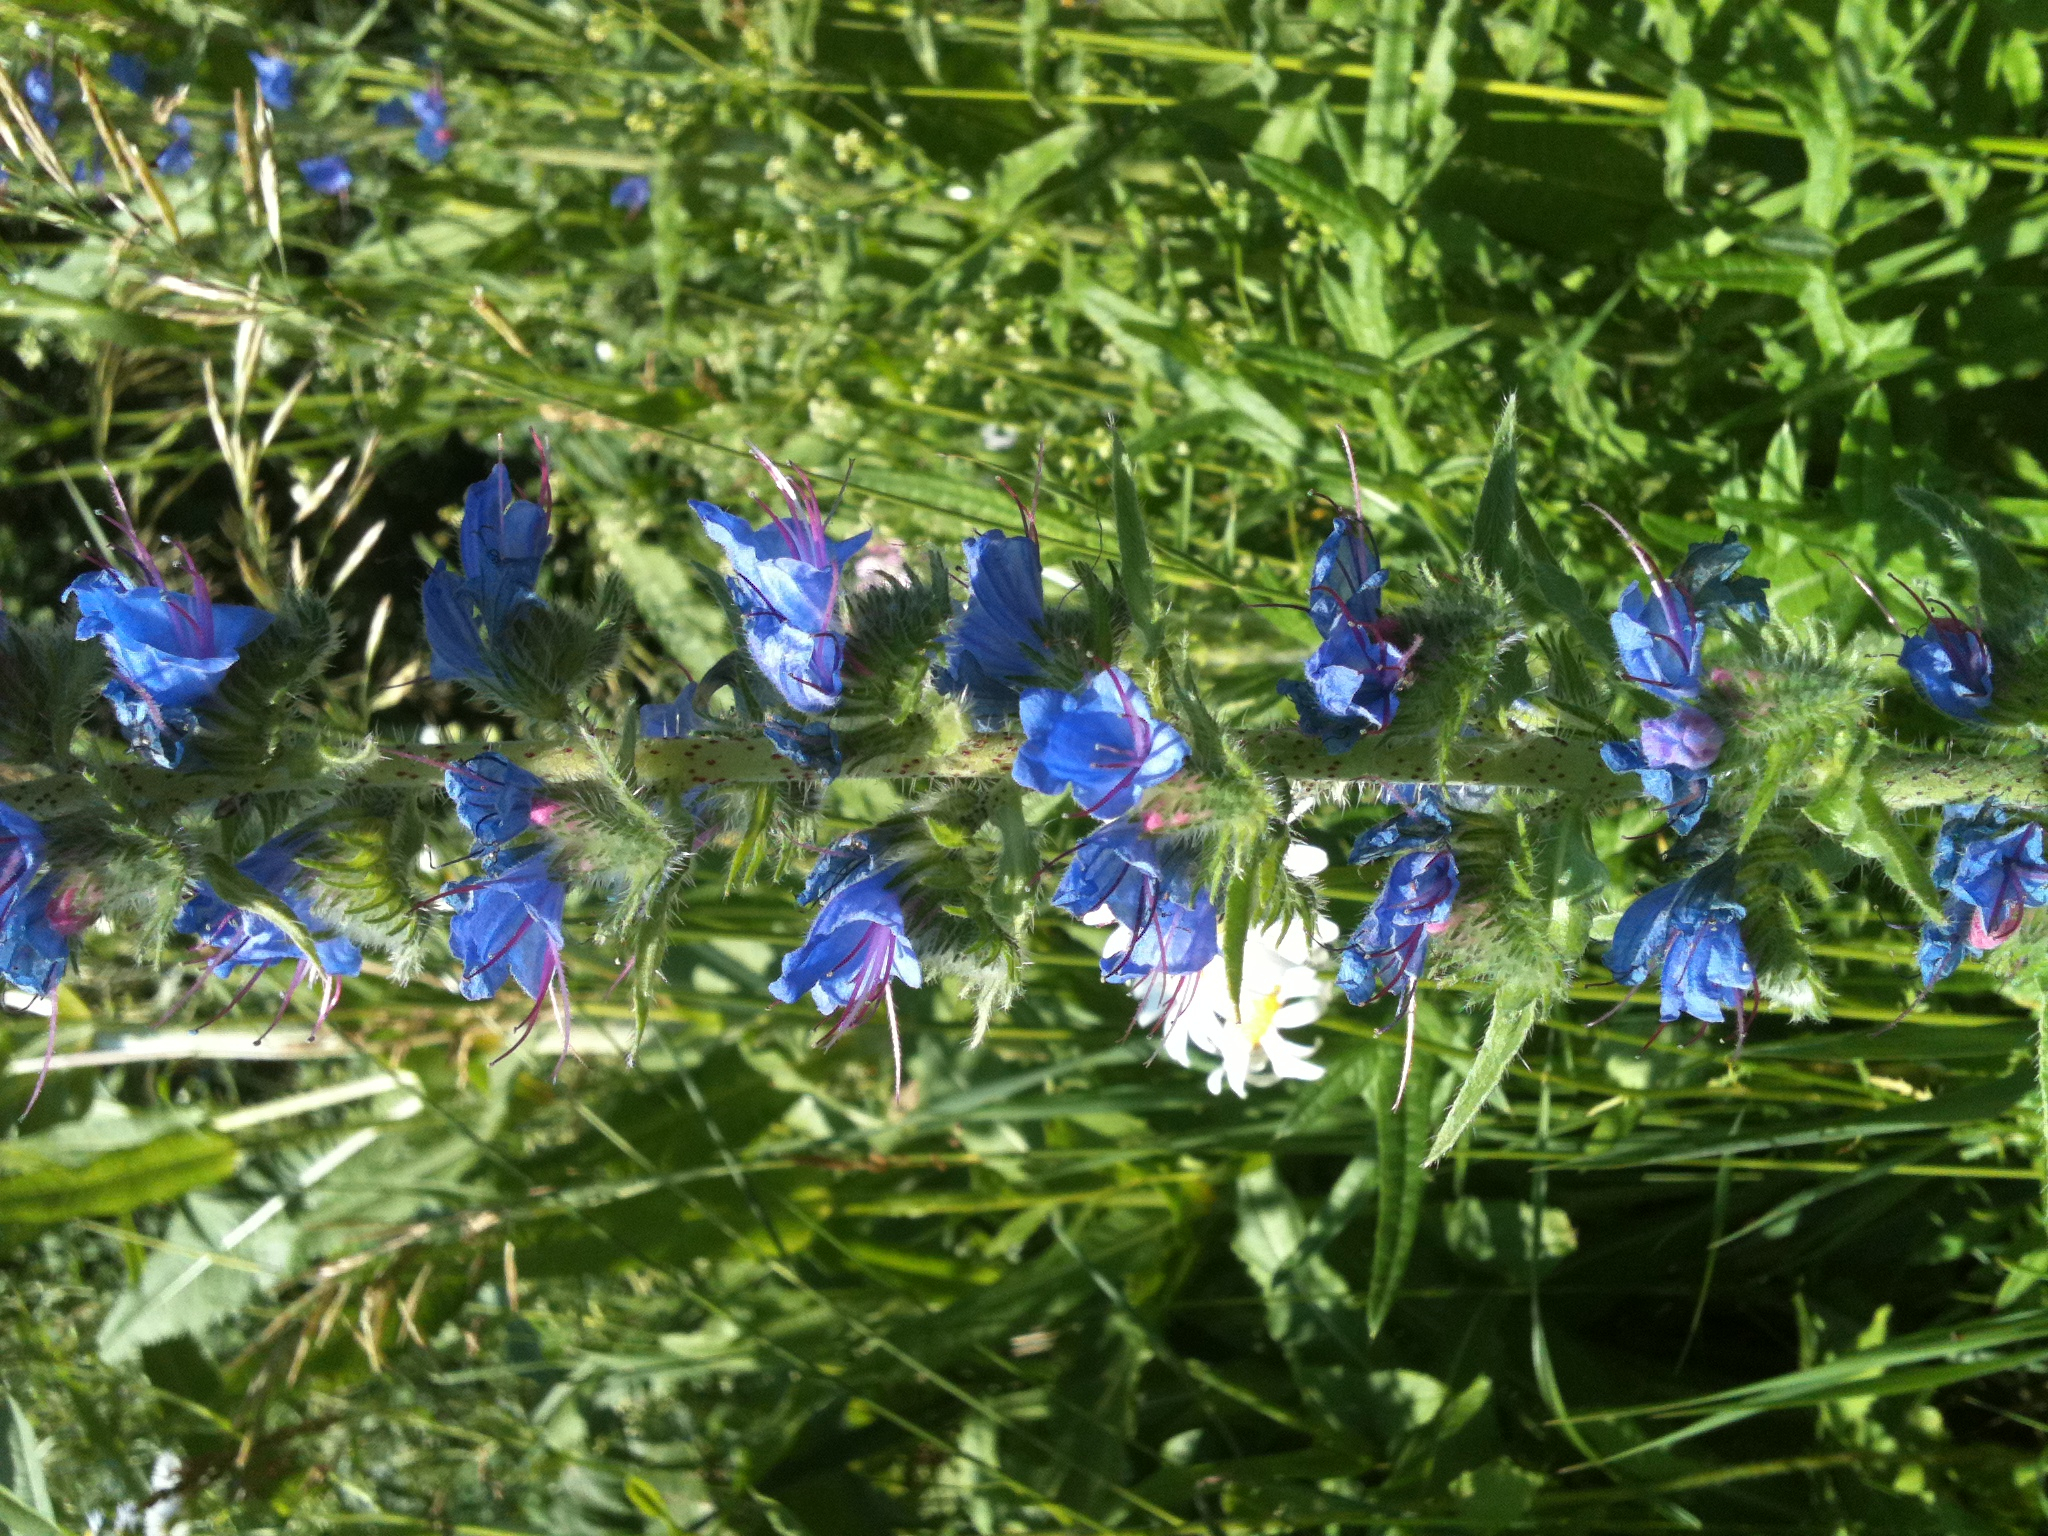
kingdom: Plantae
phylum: Tracheophyta
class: Magnoliopsida
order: Boraginales
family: Boraginaceae
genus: Echium
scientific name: Echium vulgare
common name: Common viper's bugloss
